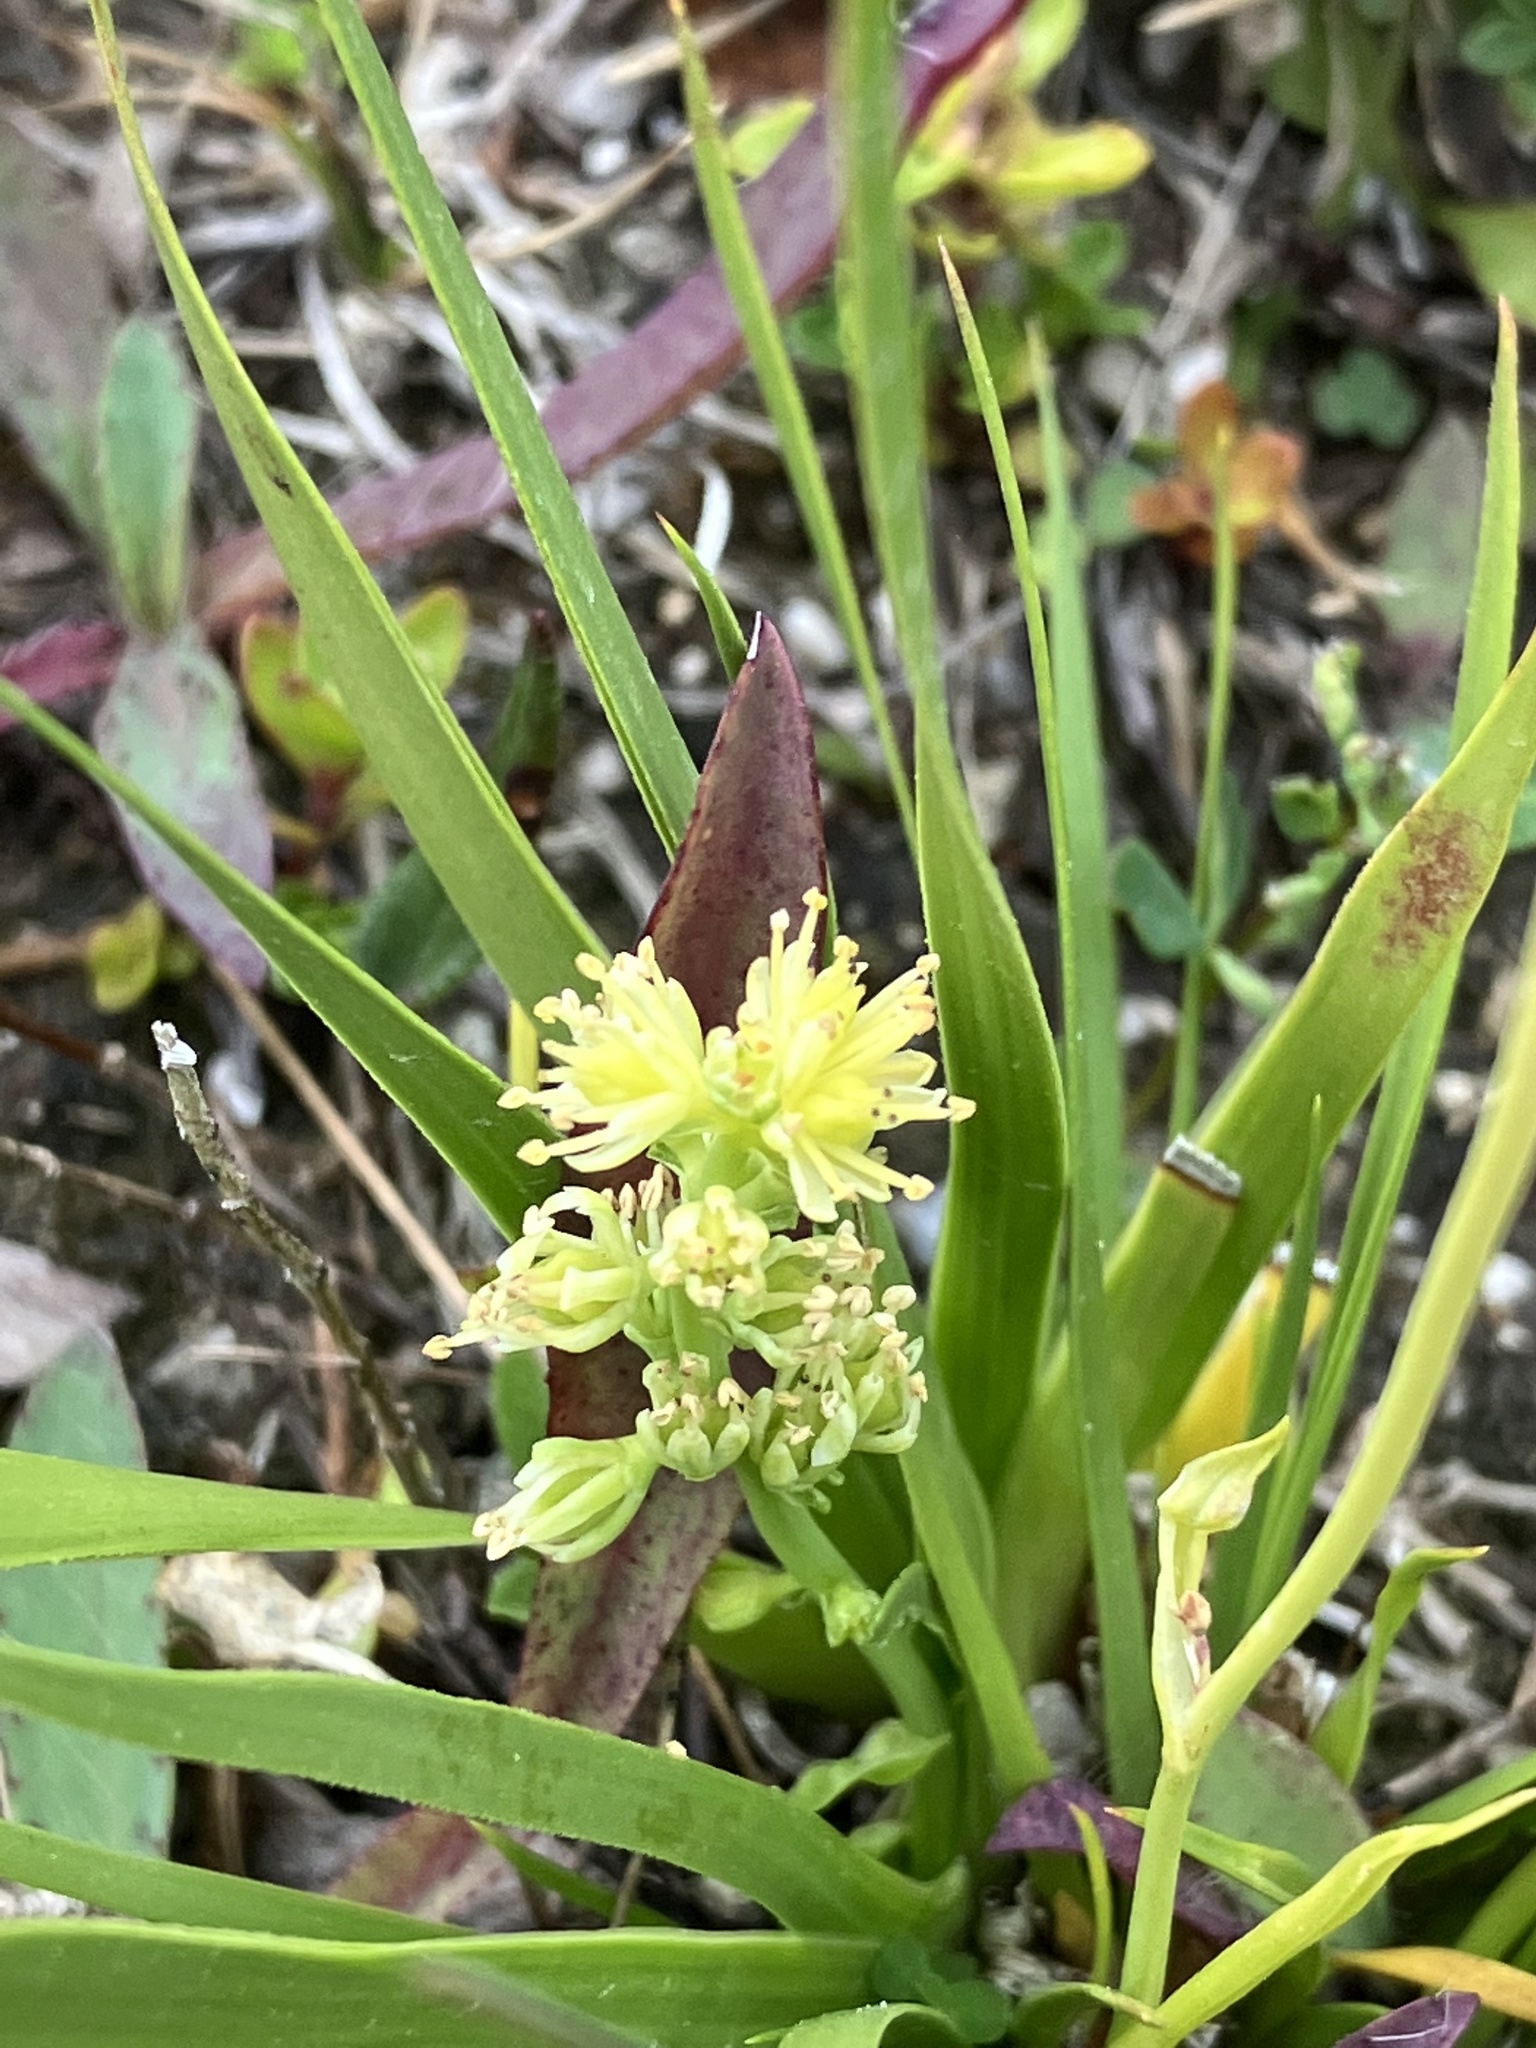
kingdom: Plantae
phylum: Tracheophyta
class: Liliopsida
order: Alismatales
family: Tofieldiaceae
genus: Tofieldia
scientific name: Tofieldia calyculata
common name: German-asphodel
